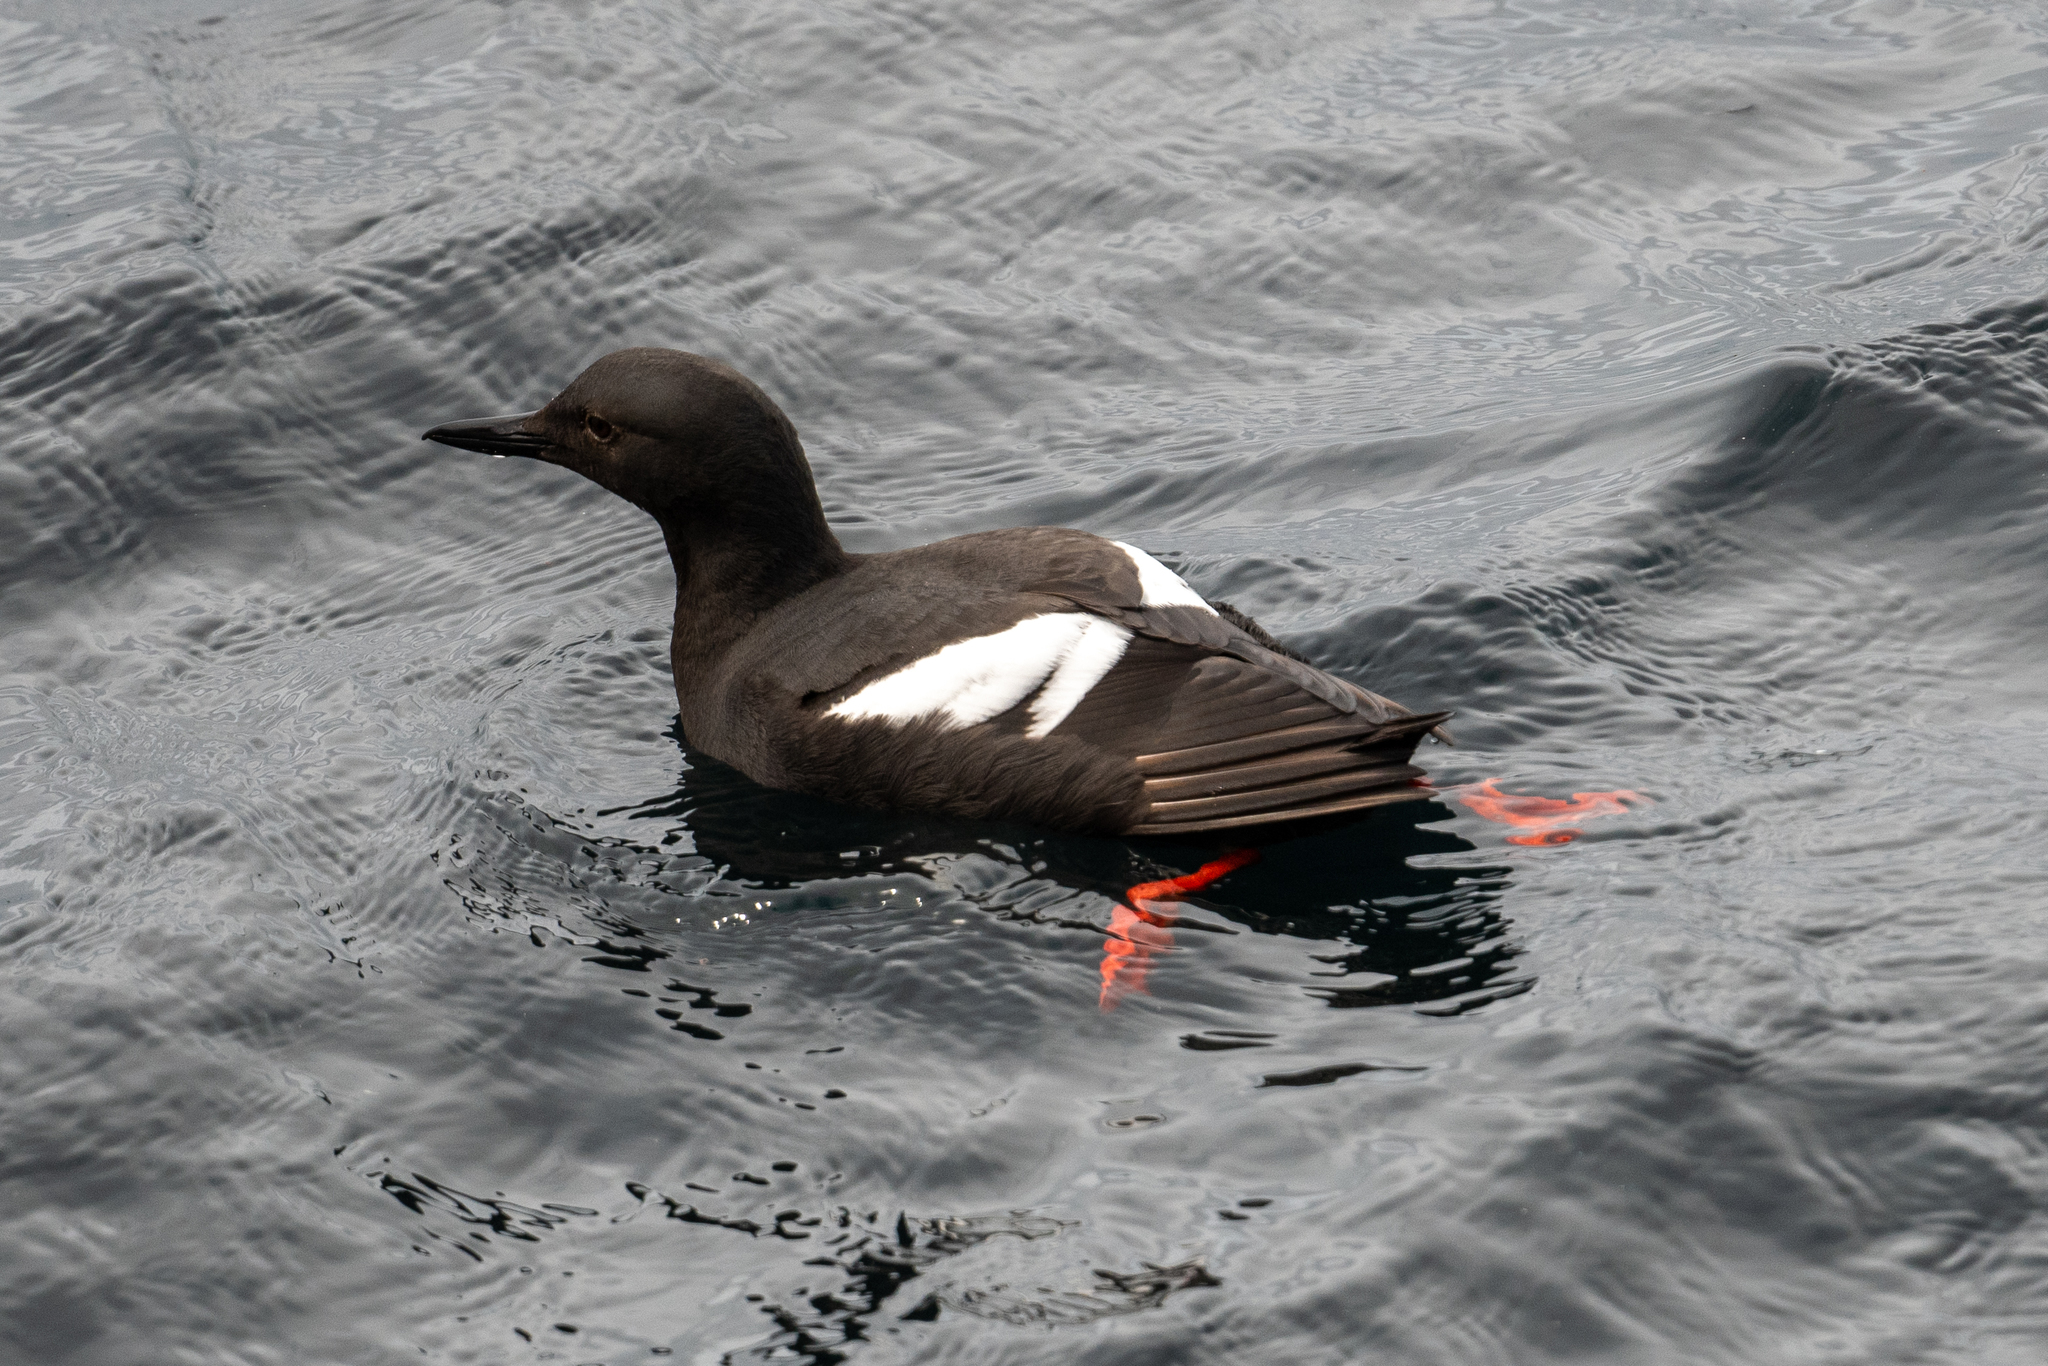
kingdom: Animalia
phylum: Chordata
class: Aves
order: Charadriiformes
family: Alcidae
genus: Cepphus
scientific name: Cepphus columba
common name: Pigeon guillemot
